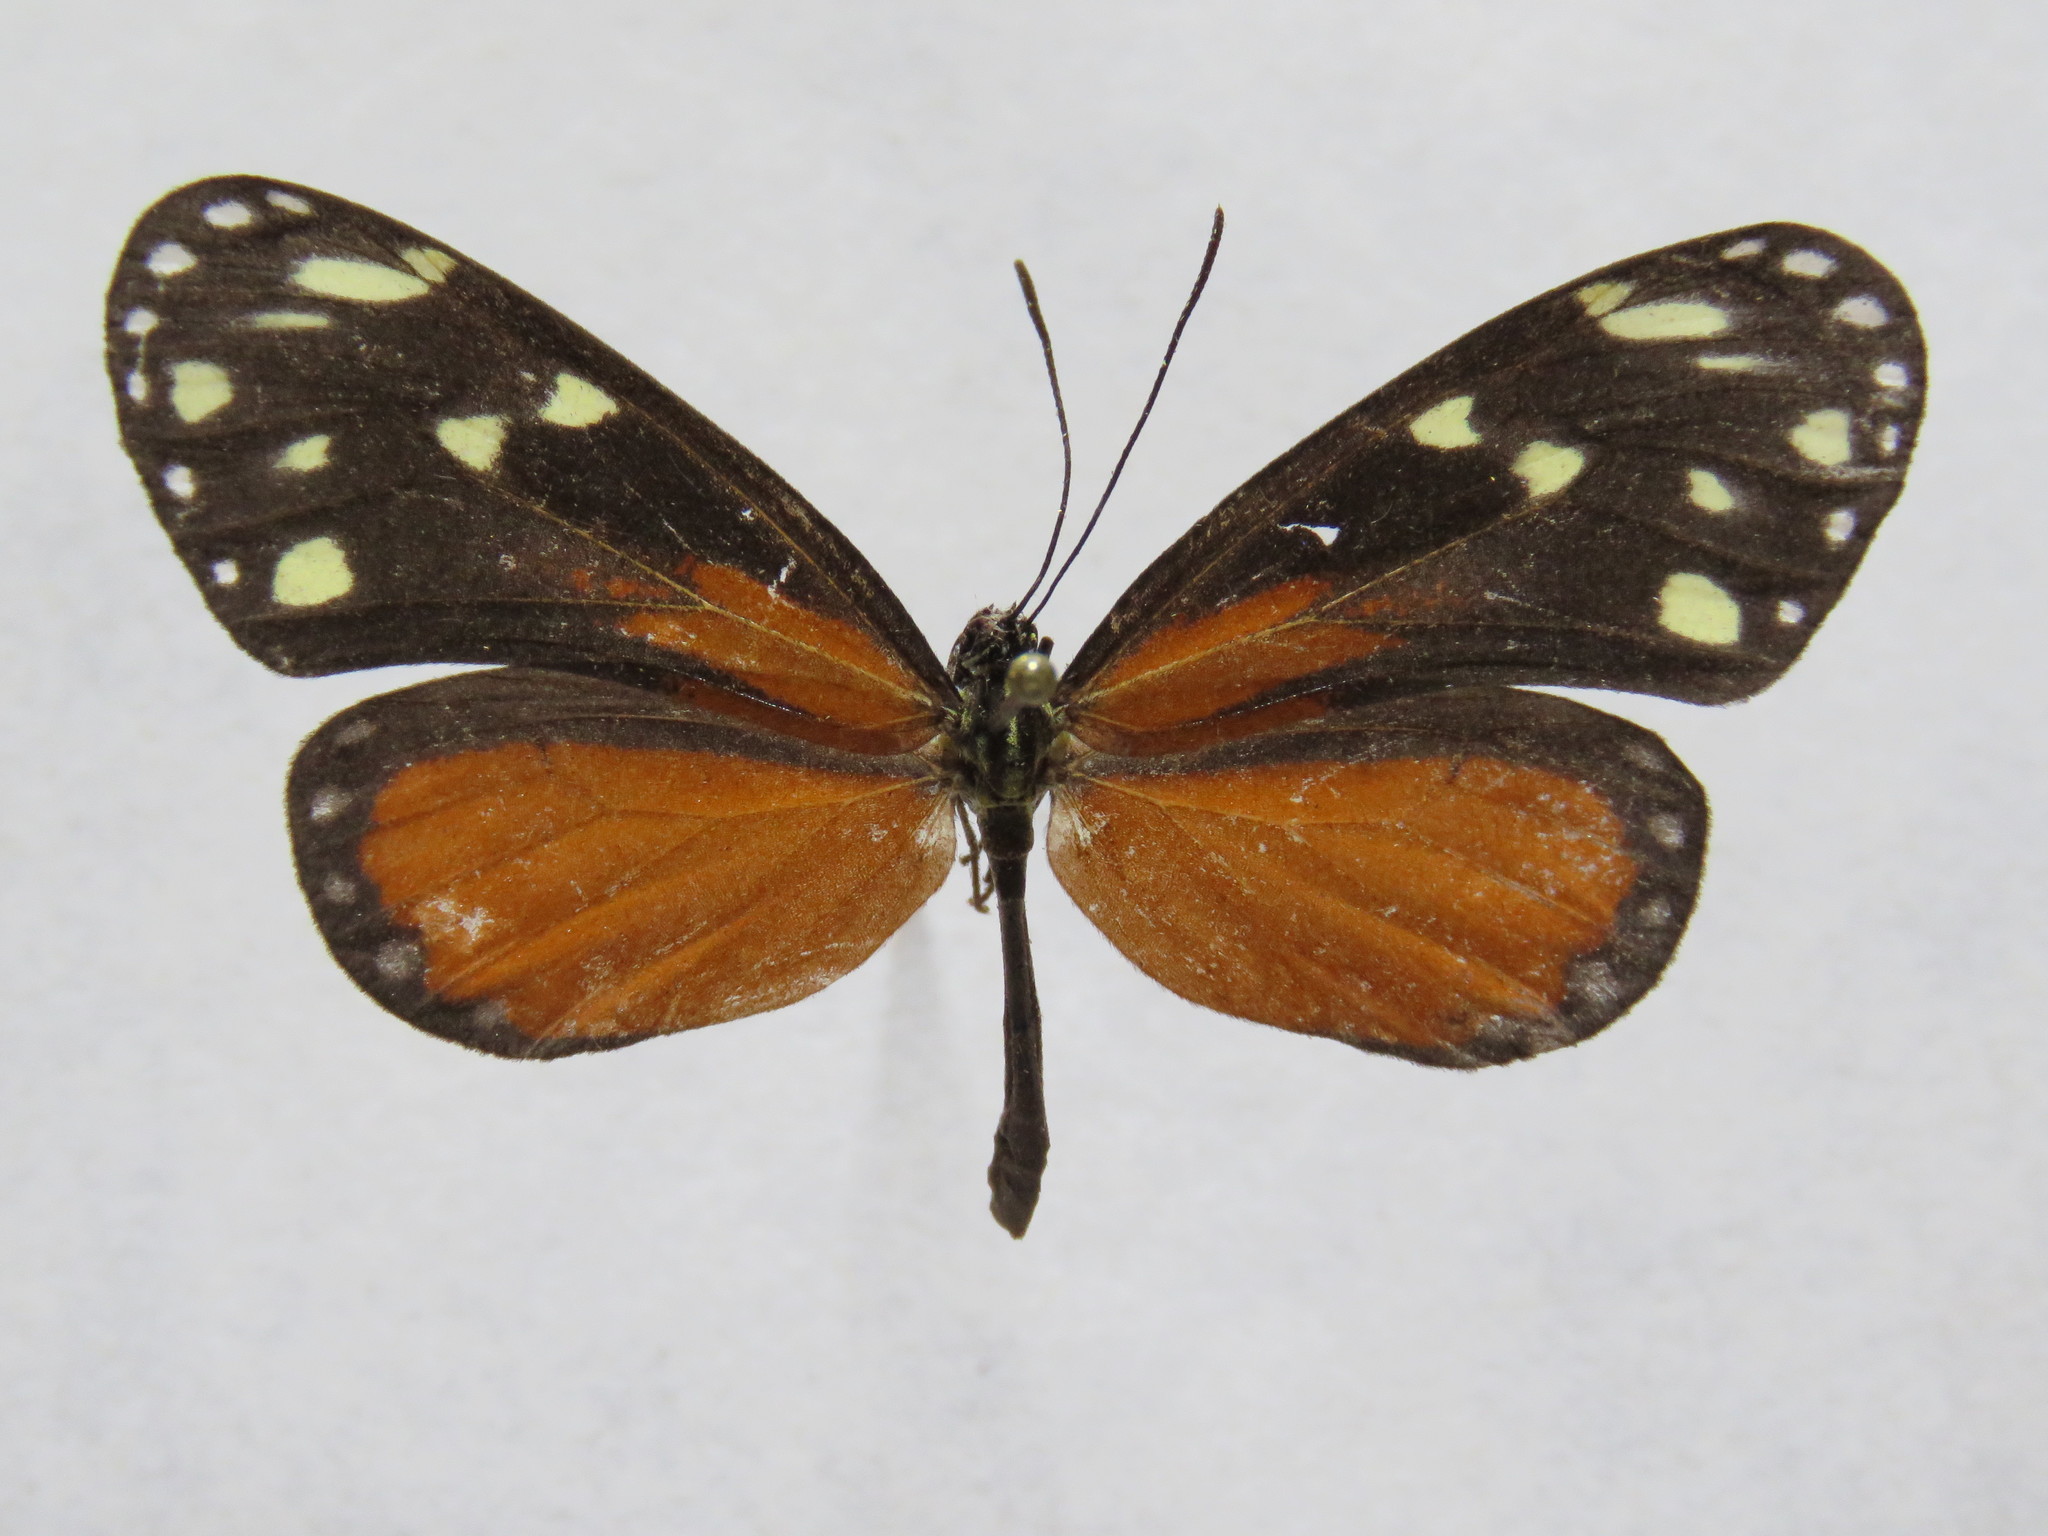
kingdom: Animalia
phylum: Arthropoda
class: Insecta
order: Lepidoptera
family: Nymphalidae
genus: Napeogenes
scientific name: Napeogenes tolosa
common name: Tollhouse ticlear
